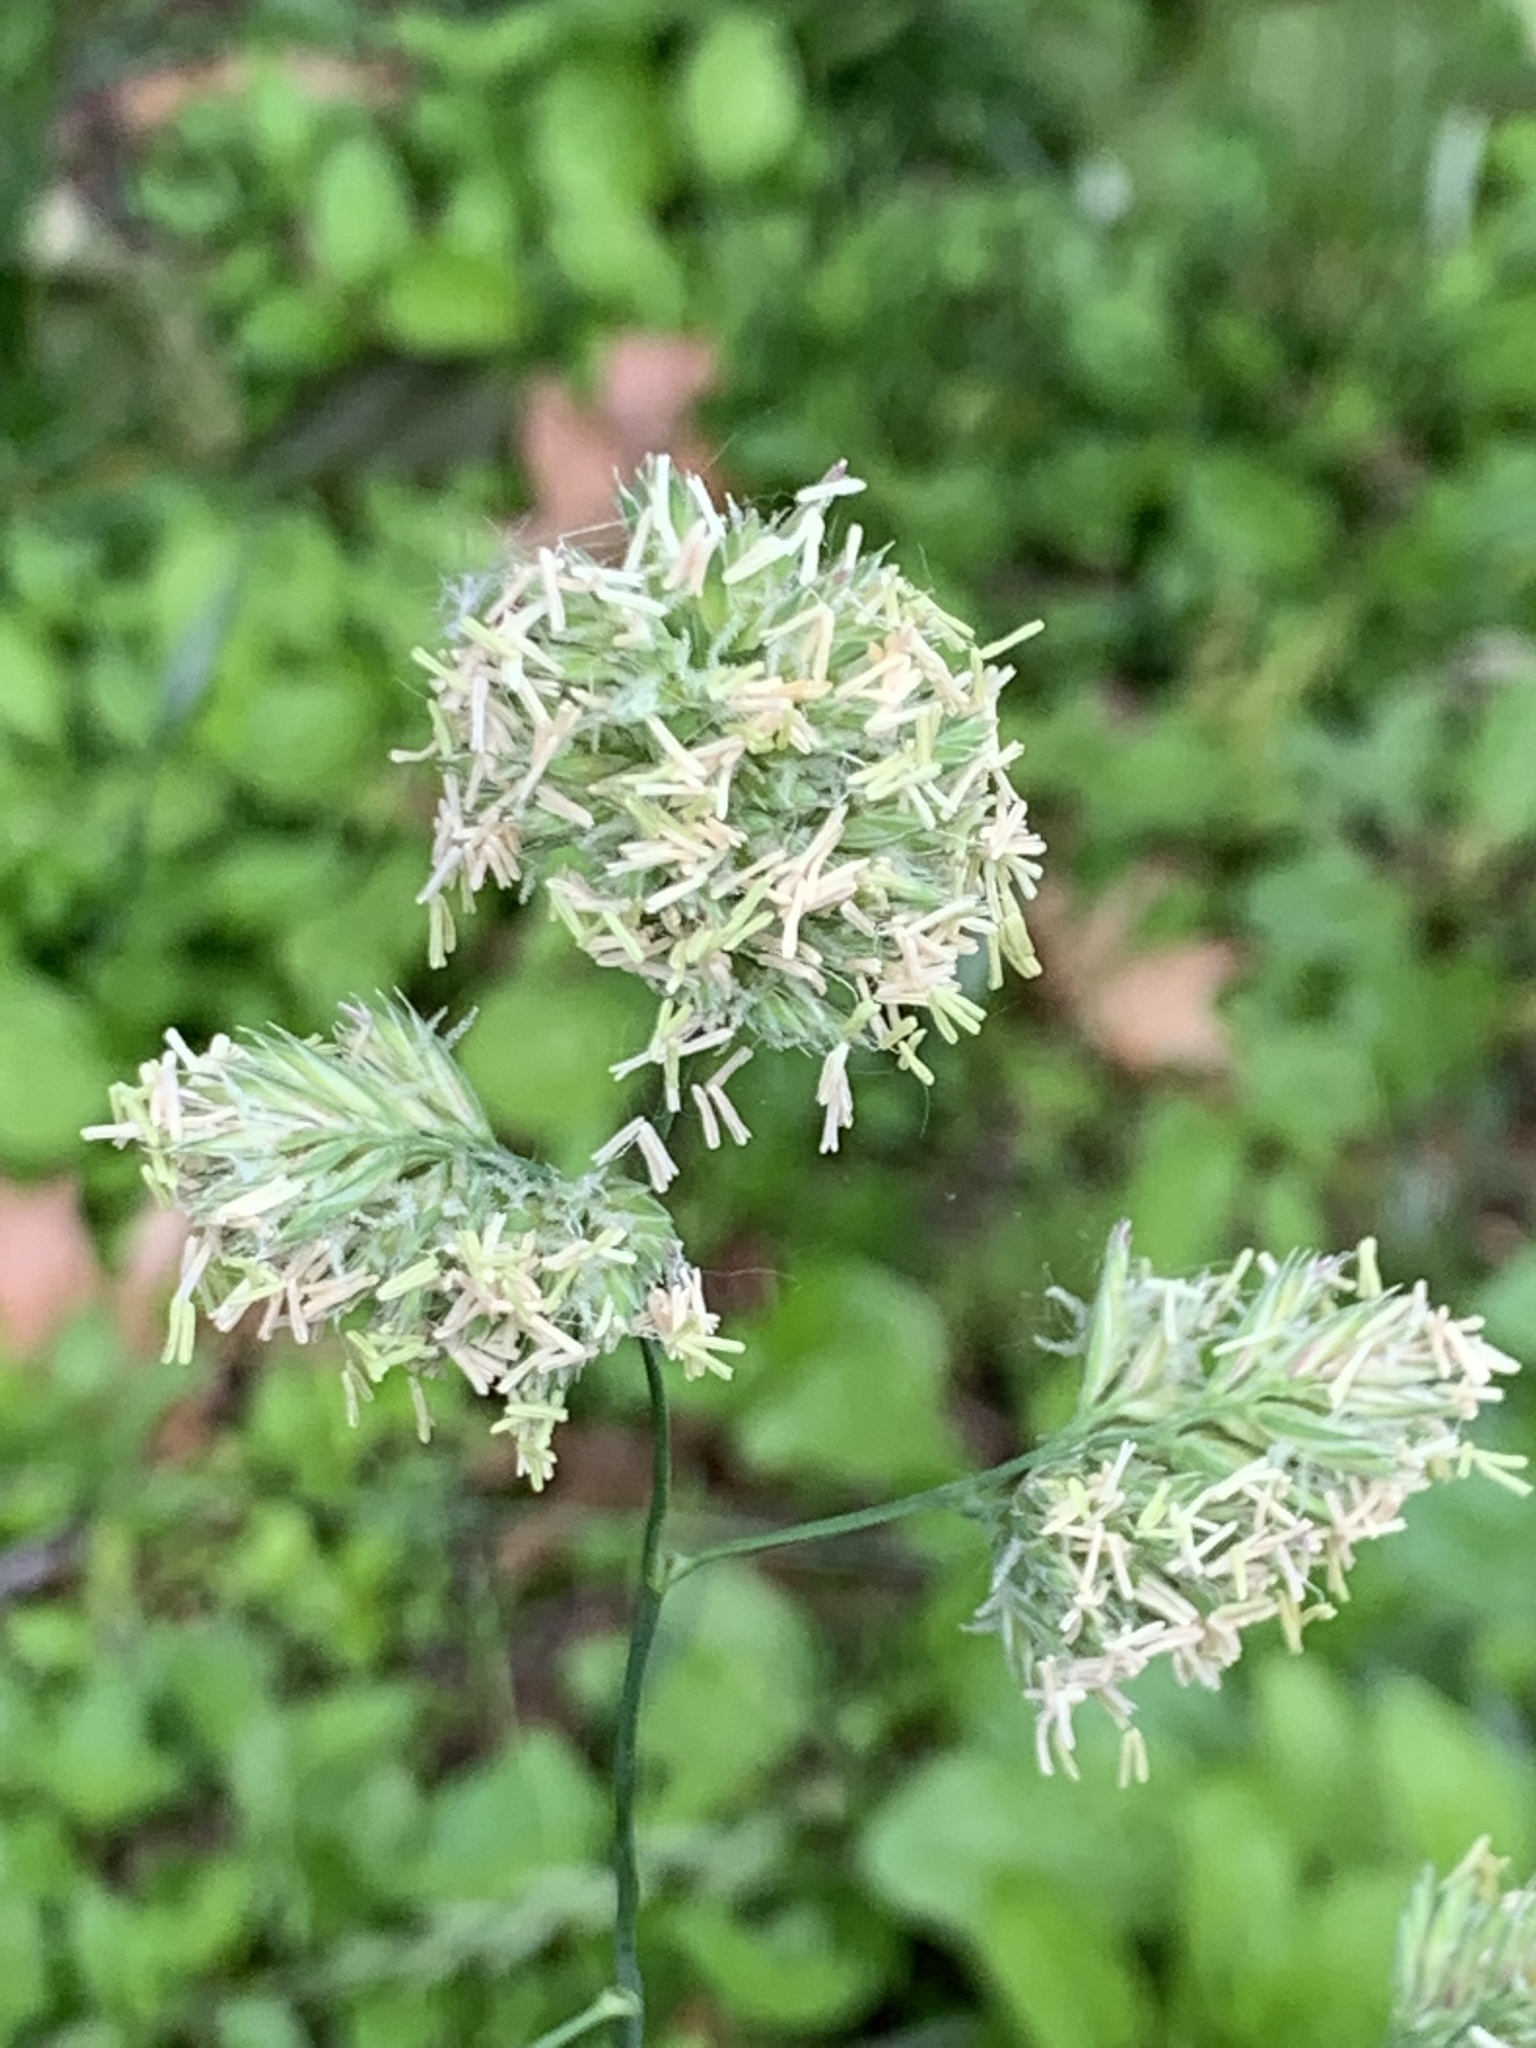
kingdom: Plantae
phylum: Tracheophyta
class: Liliopsida
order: Poales
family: Poaceae
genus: Dactylis
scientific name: Dactylis glomerata
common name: Orchardgrass
